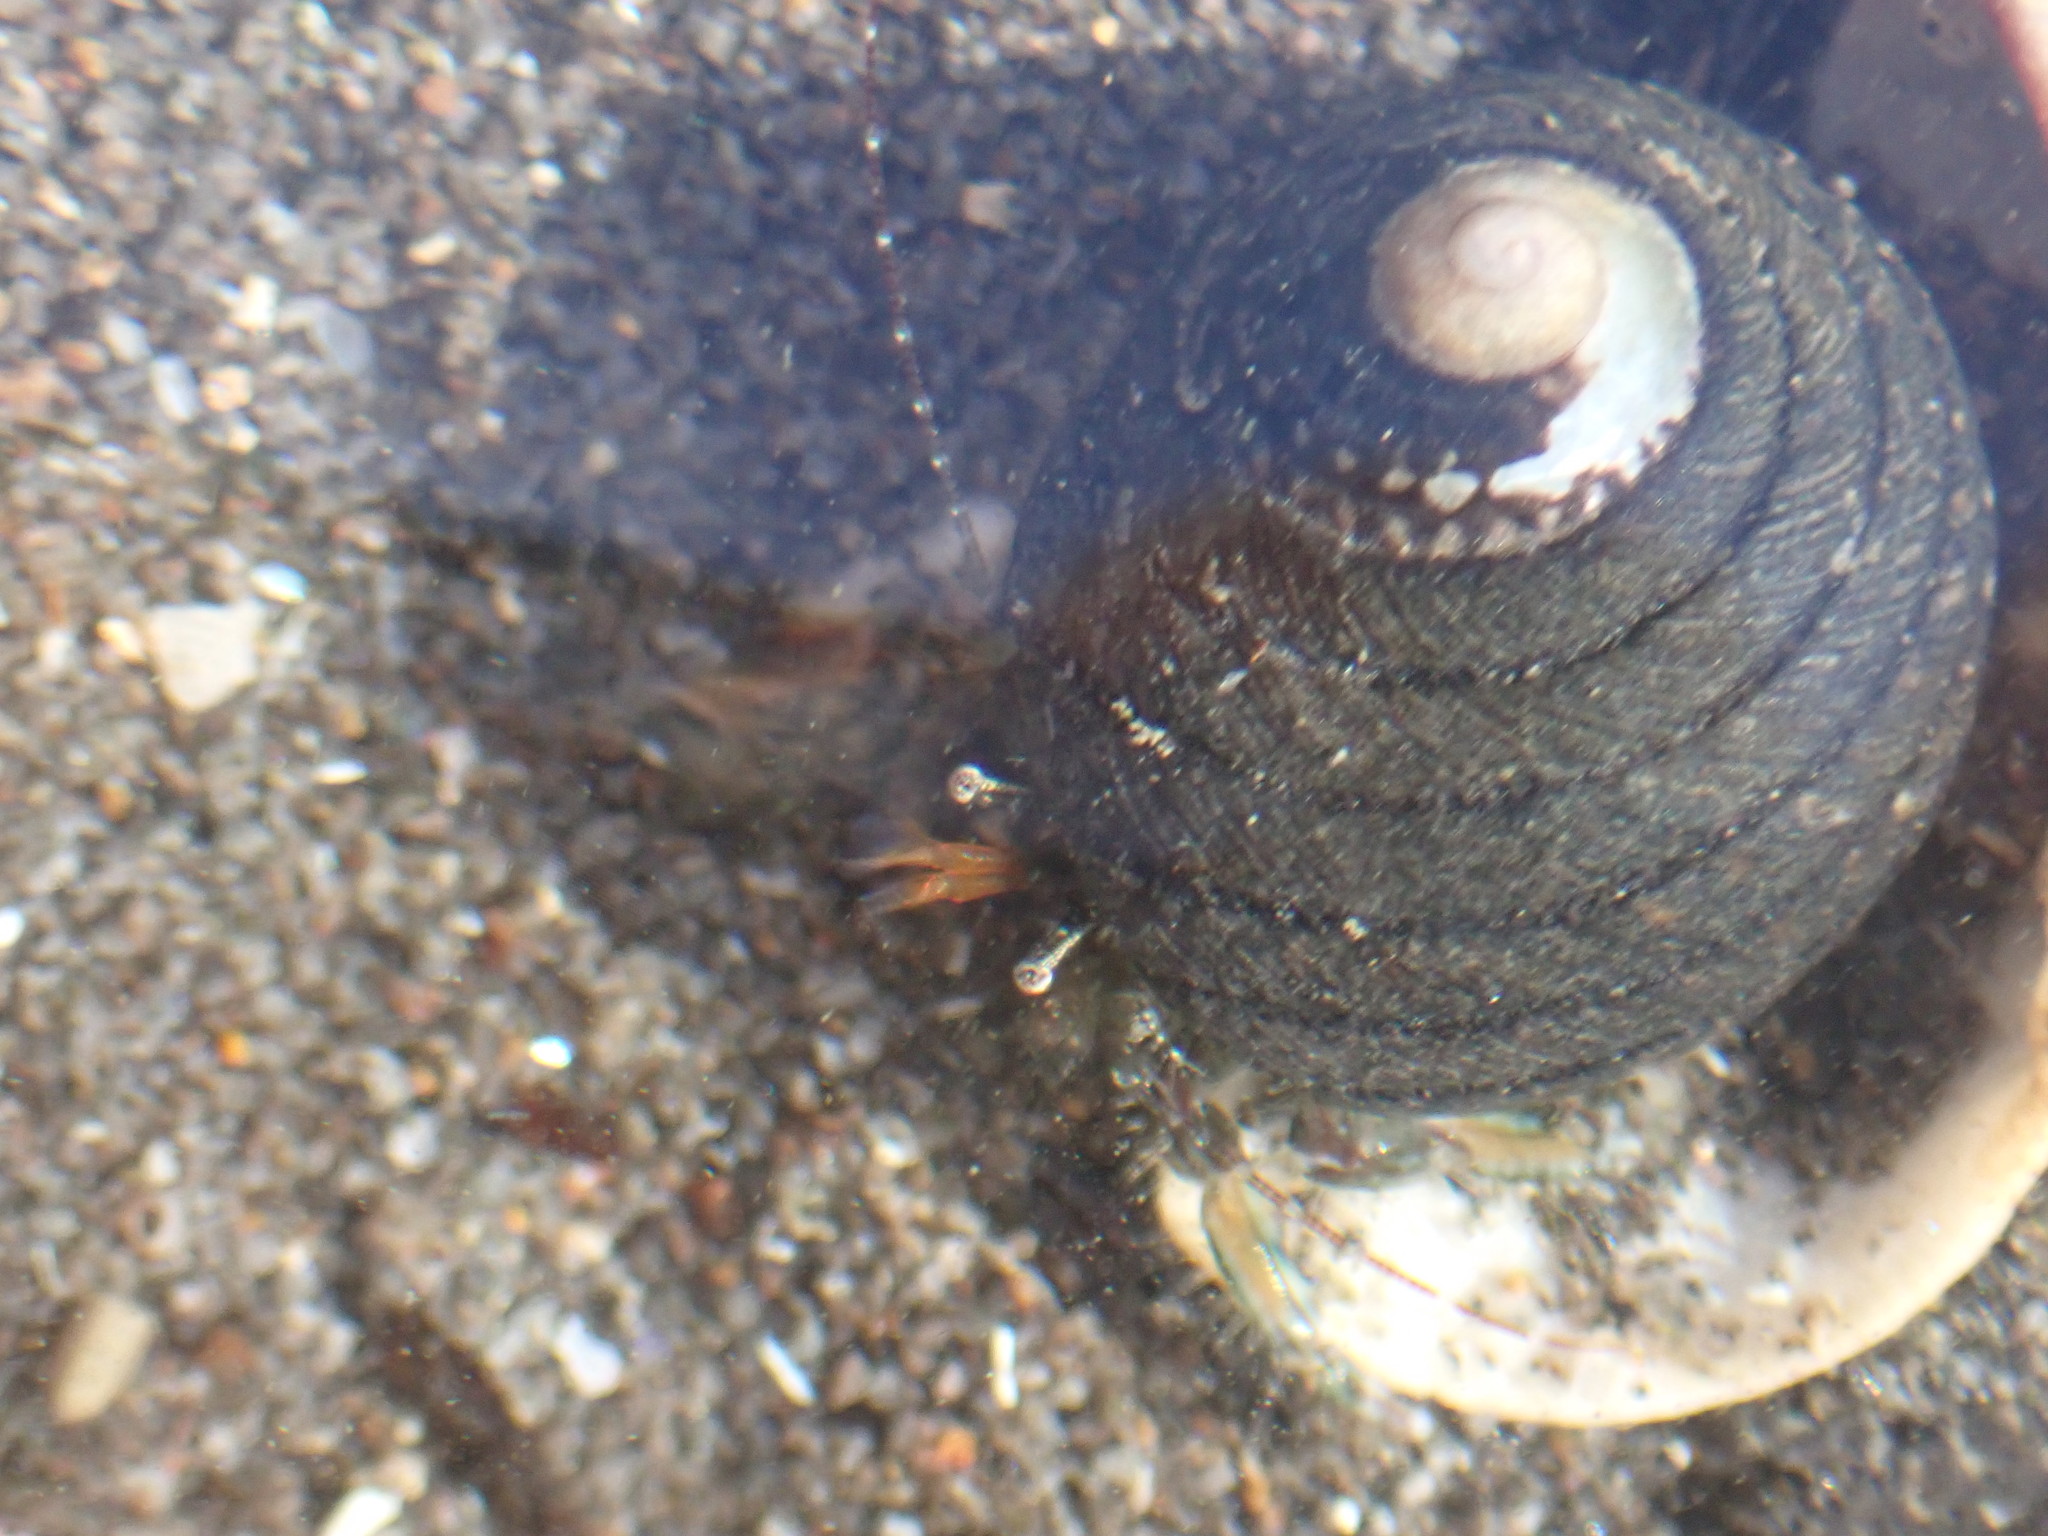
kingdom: Animalia
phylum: Arthropoda
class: Malacostraca
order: Decapoda
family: Paguridae
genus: Pagurus
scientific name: Pagurus traversi
